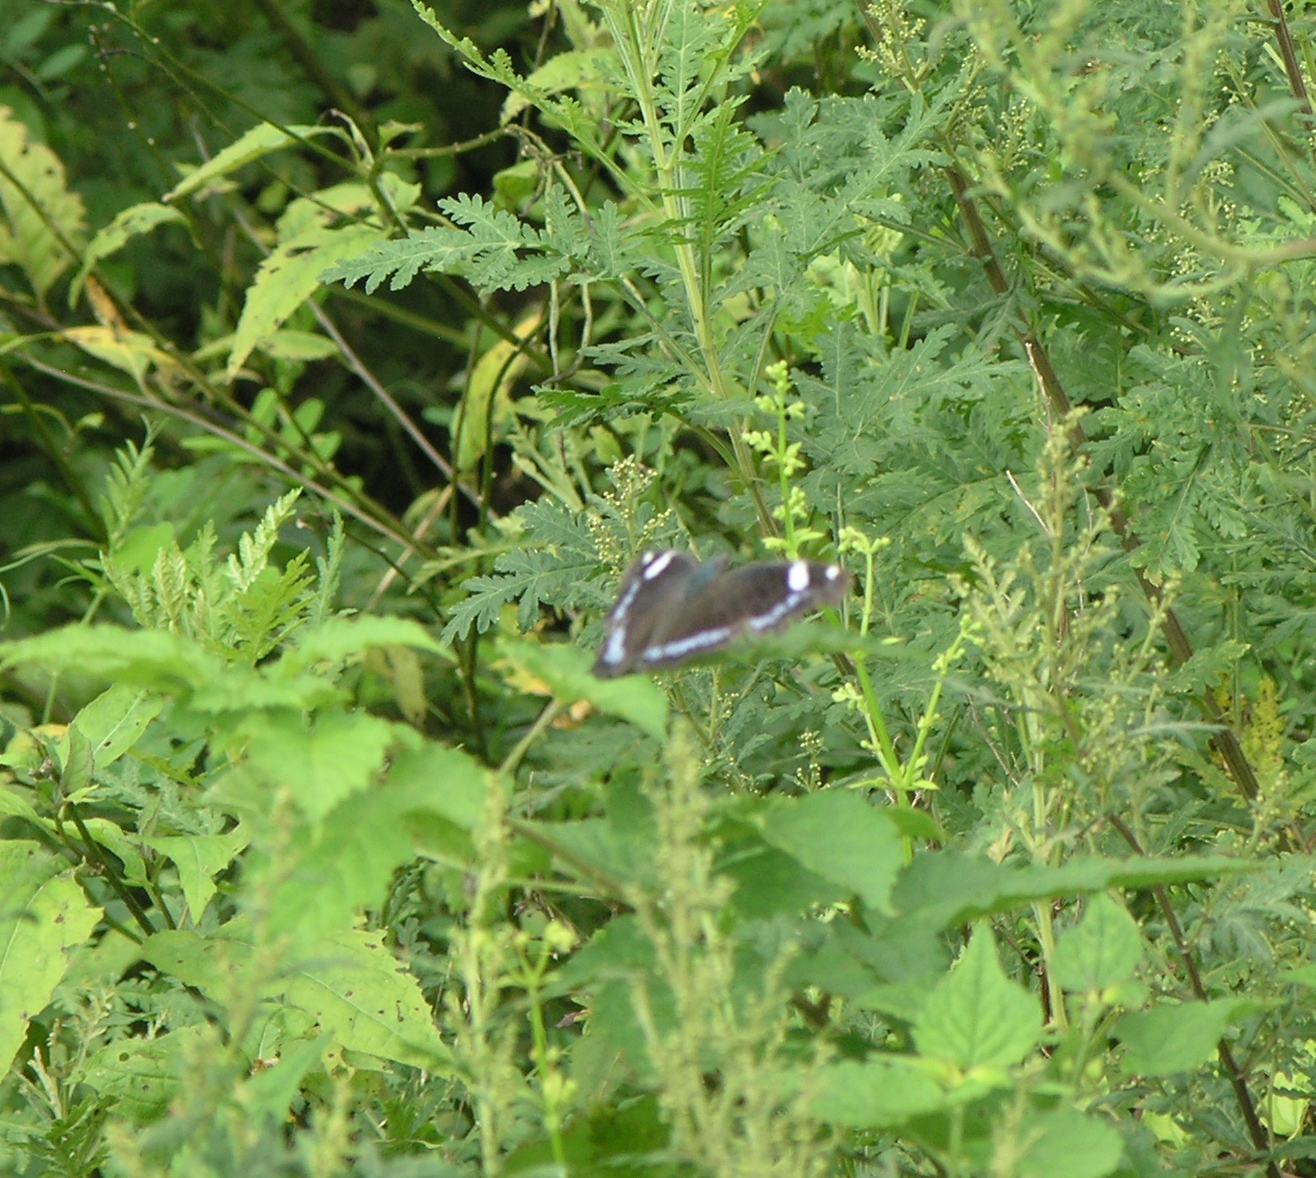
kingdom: Animalia
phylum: Arthropoda
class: Insecta
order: Lepidoptera
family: Nymphalidae
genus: Vanessa
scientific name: Vanessa Kaniska canace
